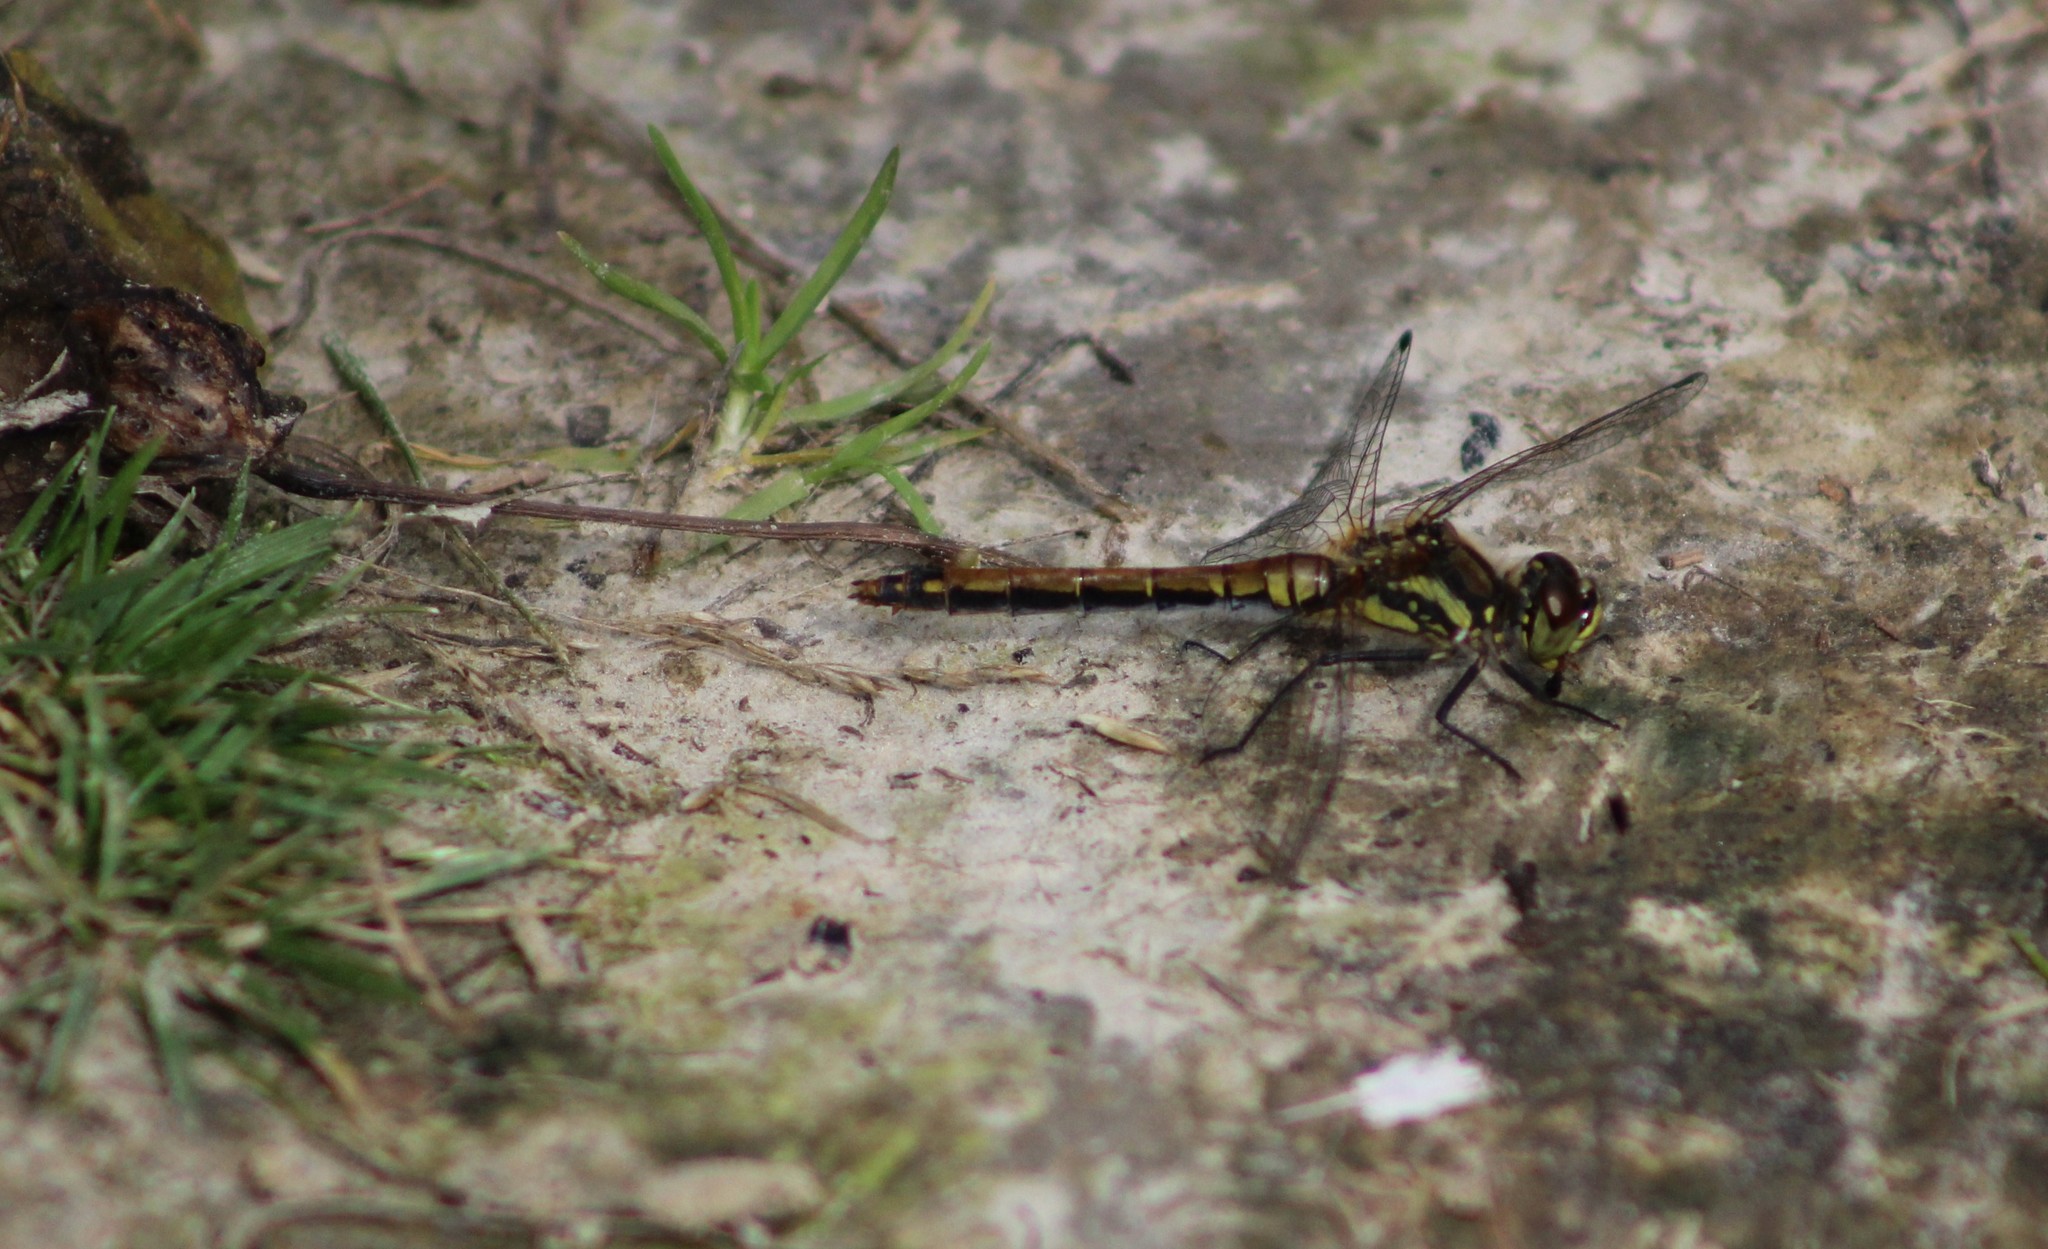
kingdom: Animalia
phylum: Arthropoda
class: Insecta
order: Odonata
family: Libellulidae
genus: Sympetrum
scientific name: Sympetrum danae
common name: Black darter
